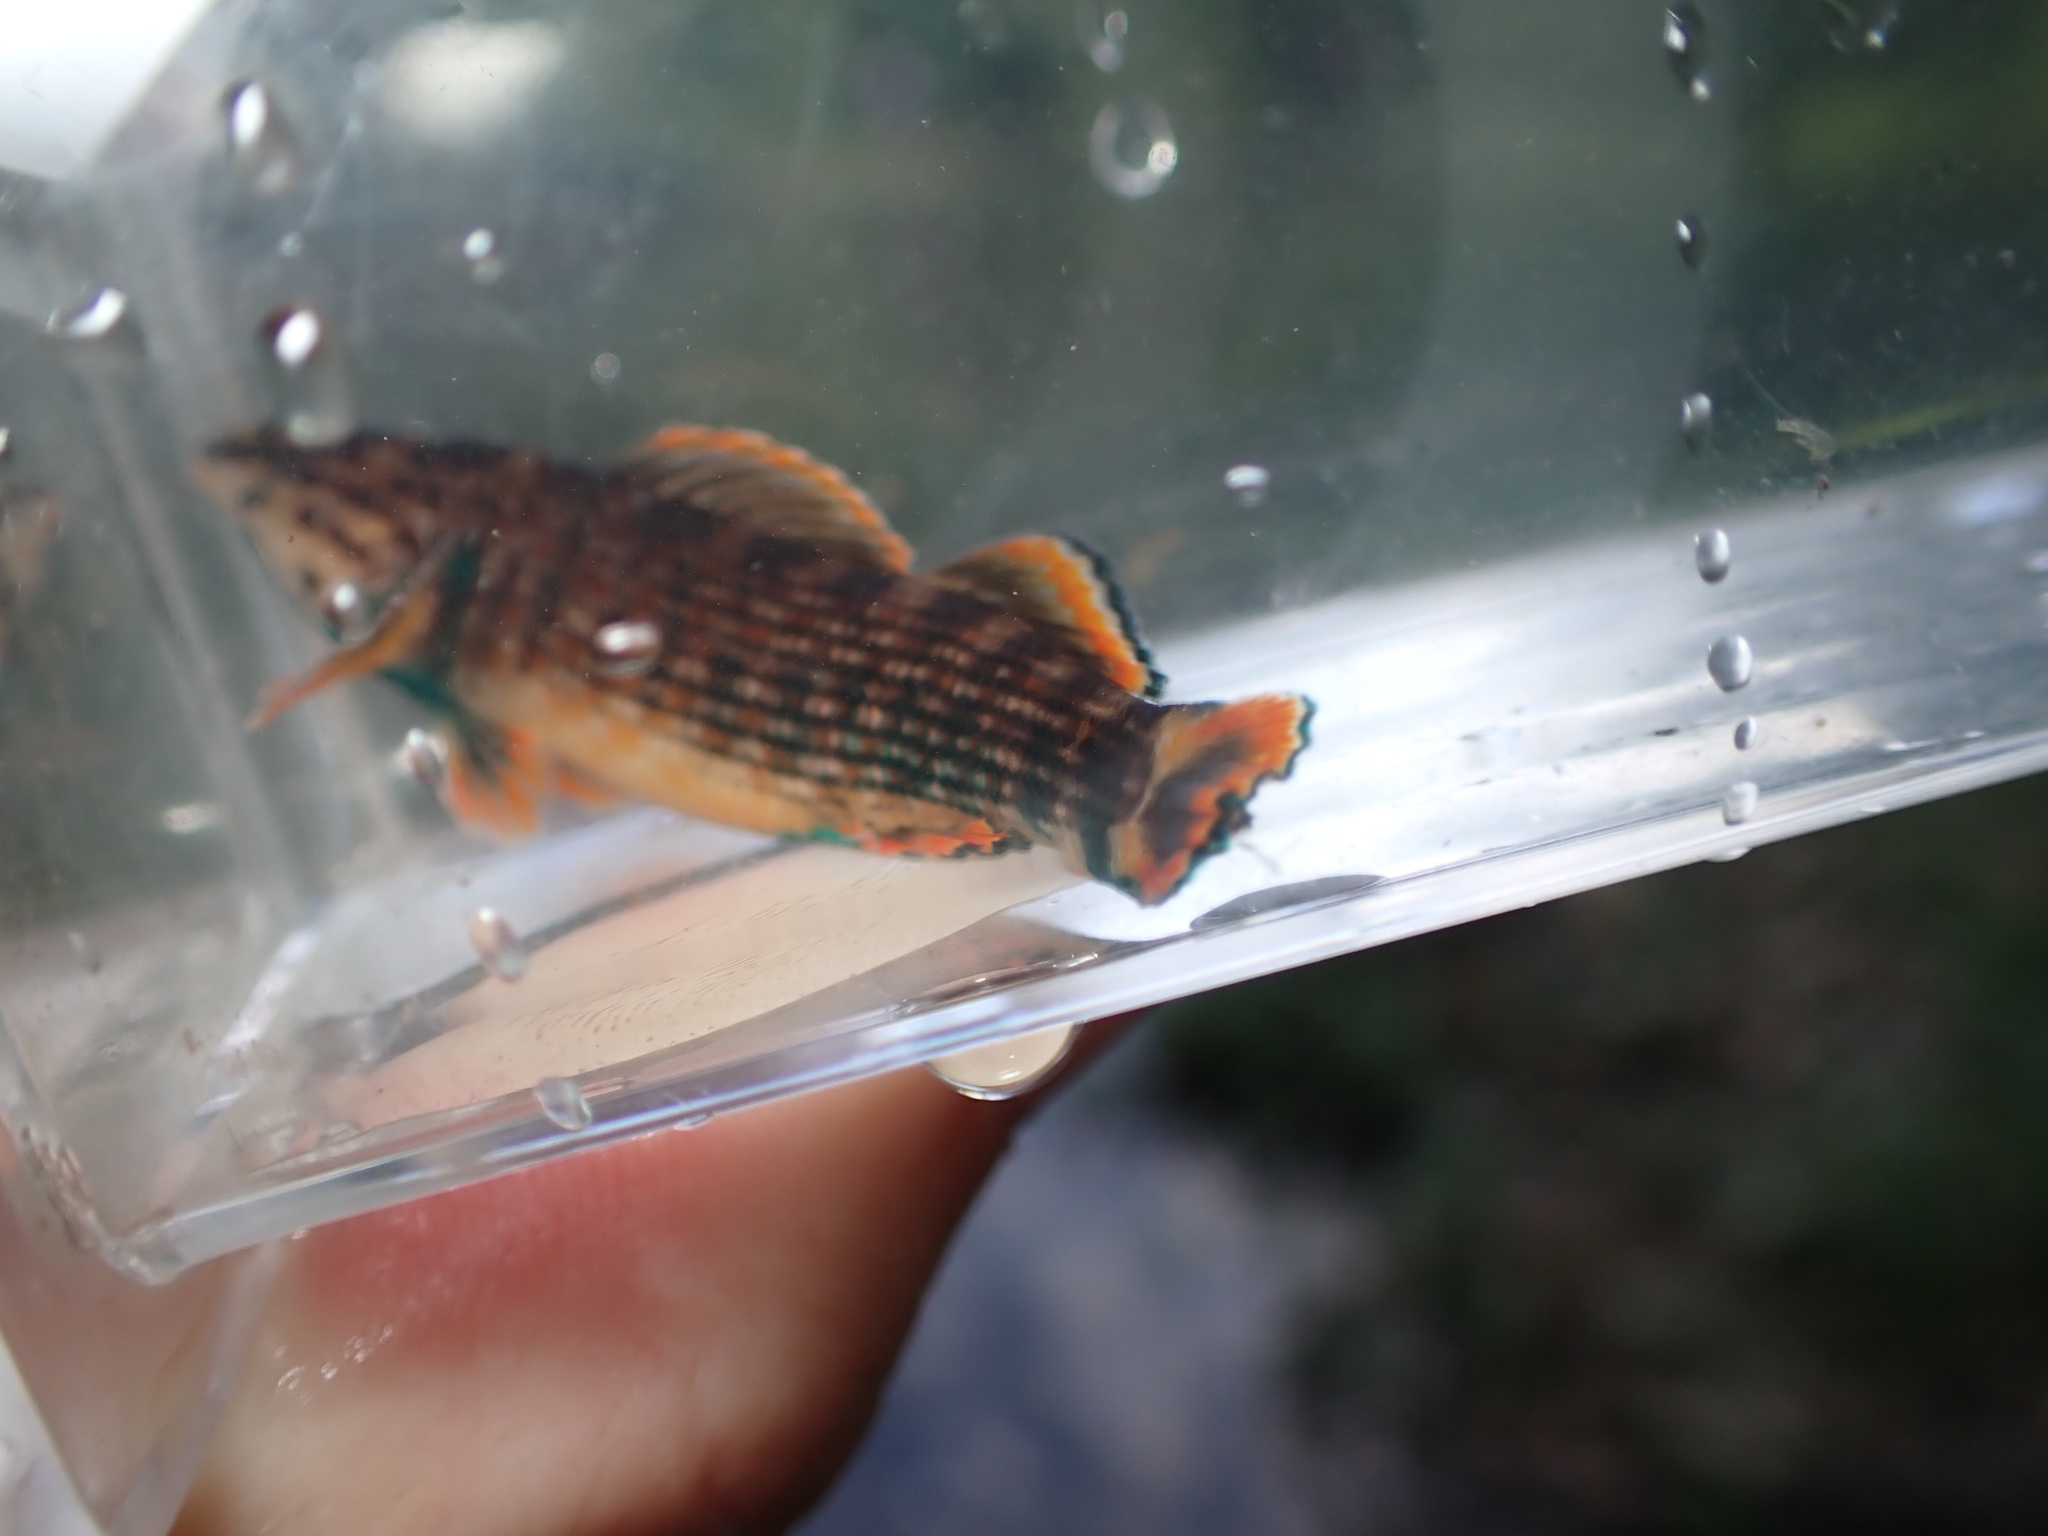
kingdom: Animalia
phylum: Chordata
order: Perciformes
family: Percidae
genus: Etheostoma
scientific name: Etheostoma rufilineatum
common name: Redline darter
